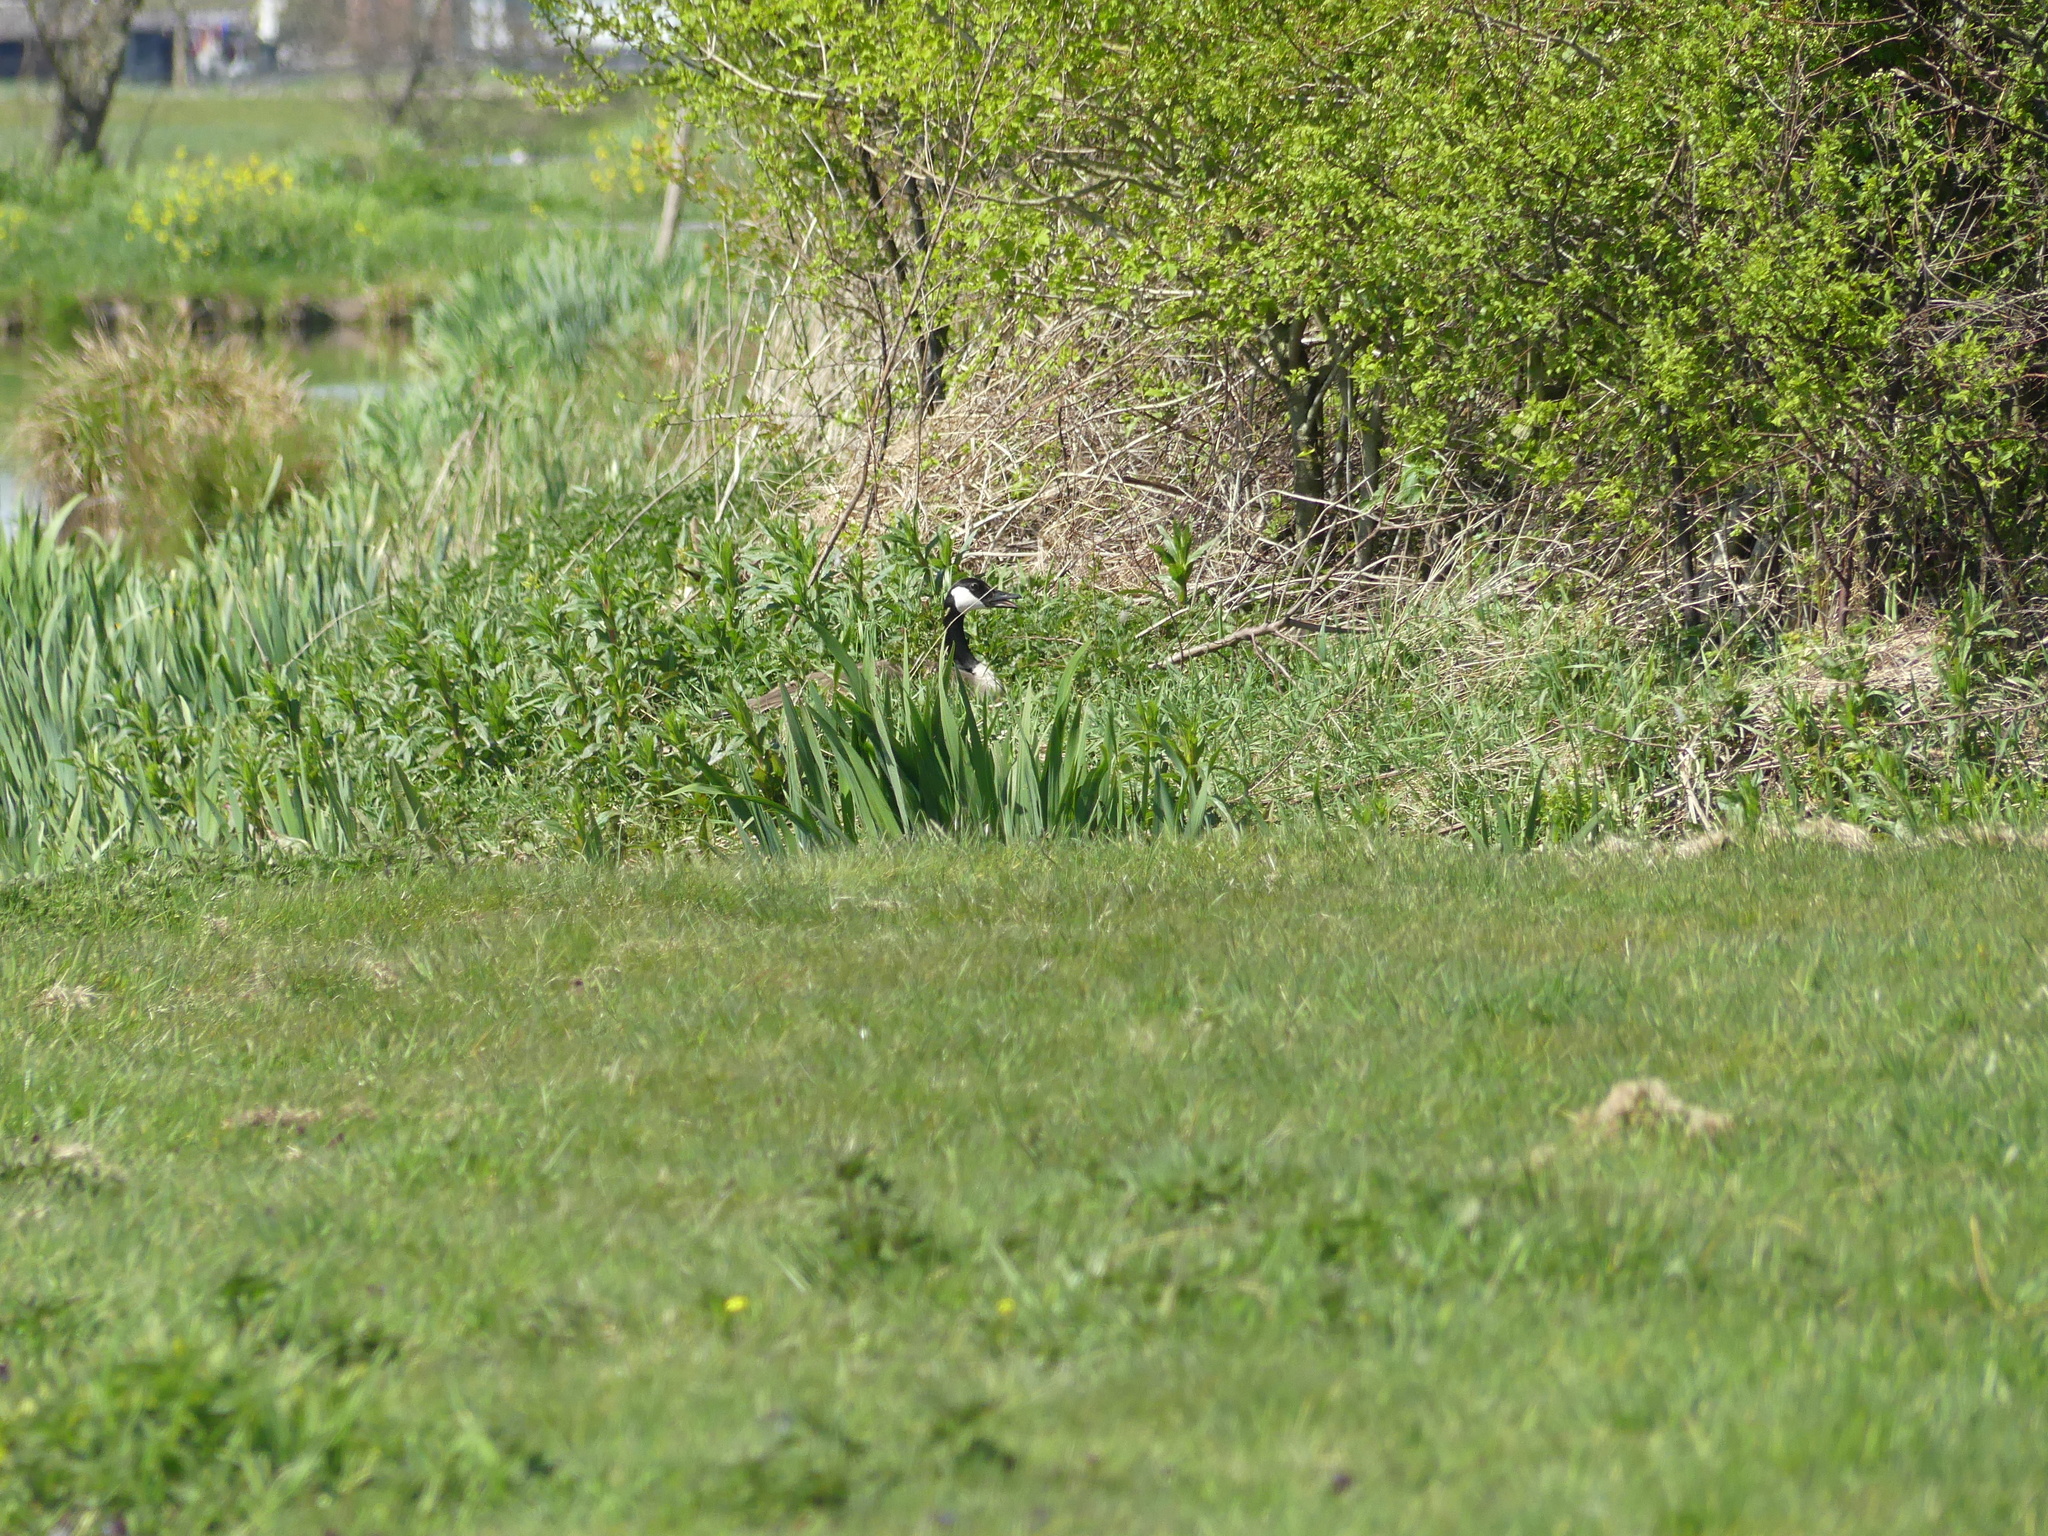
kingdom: Animalia
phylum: Chordata
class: Aves
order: Anseriformes
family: Anatidae
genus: Branta
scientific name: Branta canadensis
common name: Canada goose
